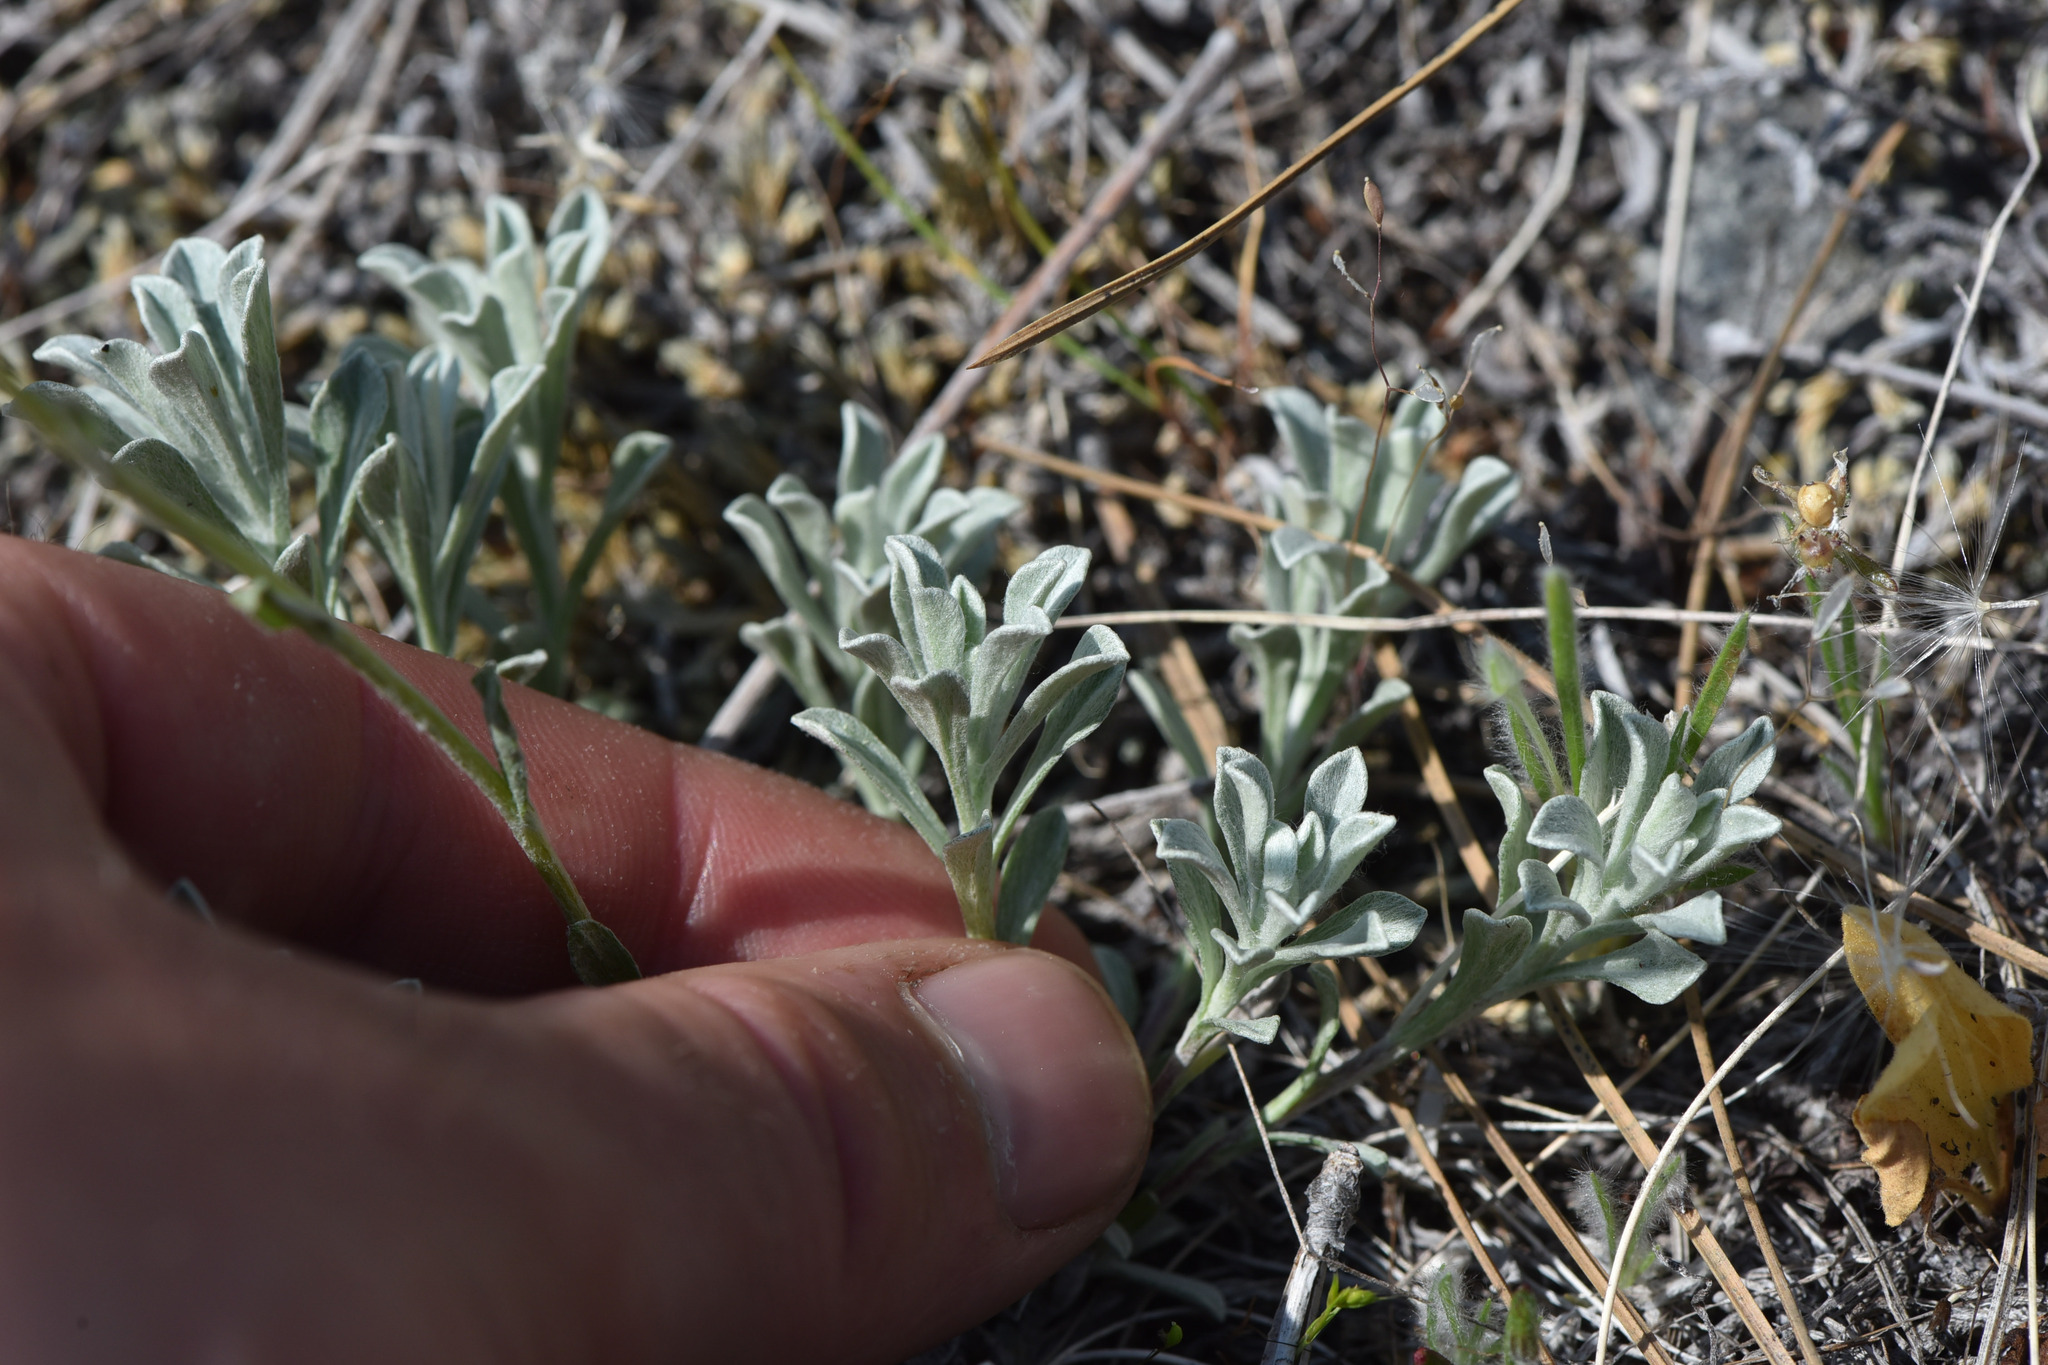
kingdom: Plantae
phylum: Tracheophyta
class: Magnoliopsida
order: Asterales
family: Asteraceae
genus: Antennaria
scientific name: Antennaria umbrinella
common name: Brown pussytoes
